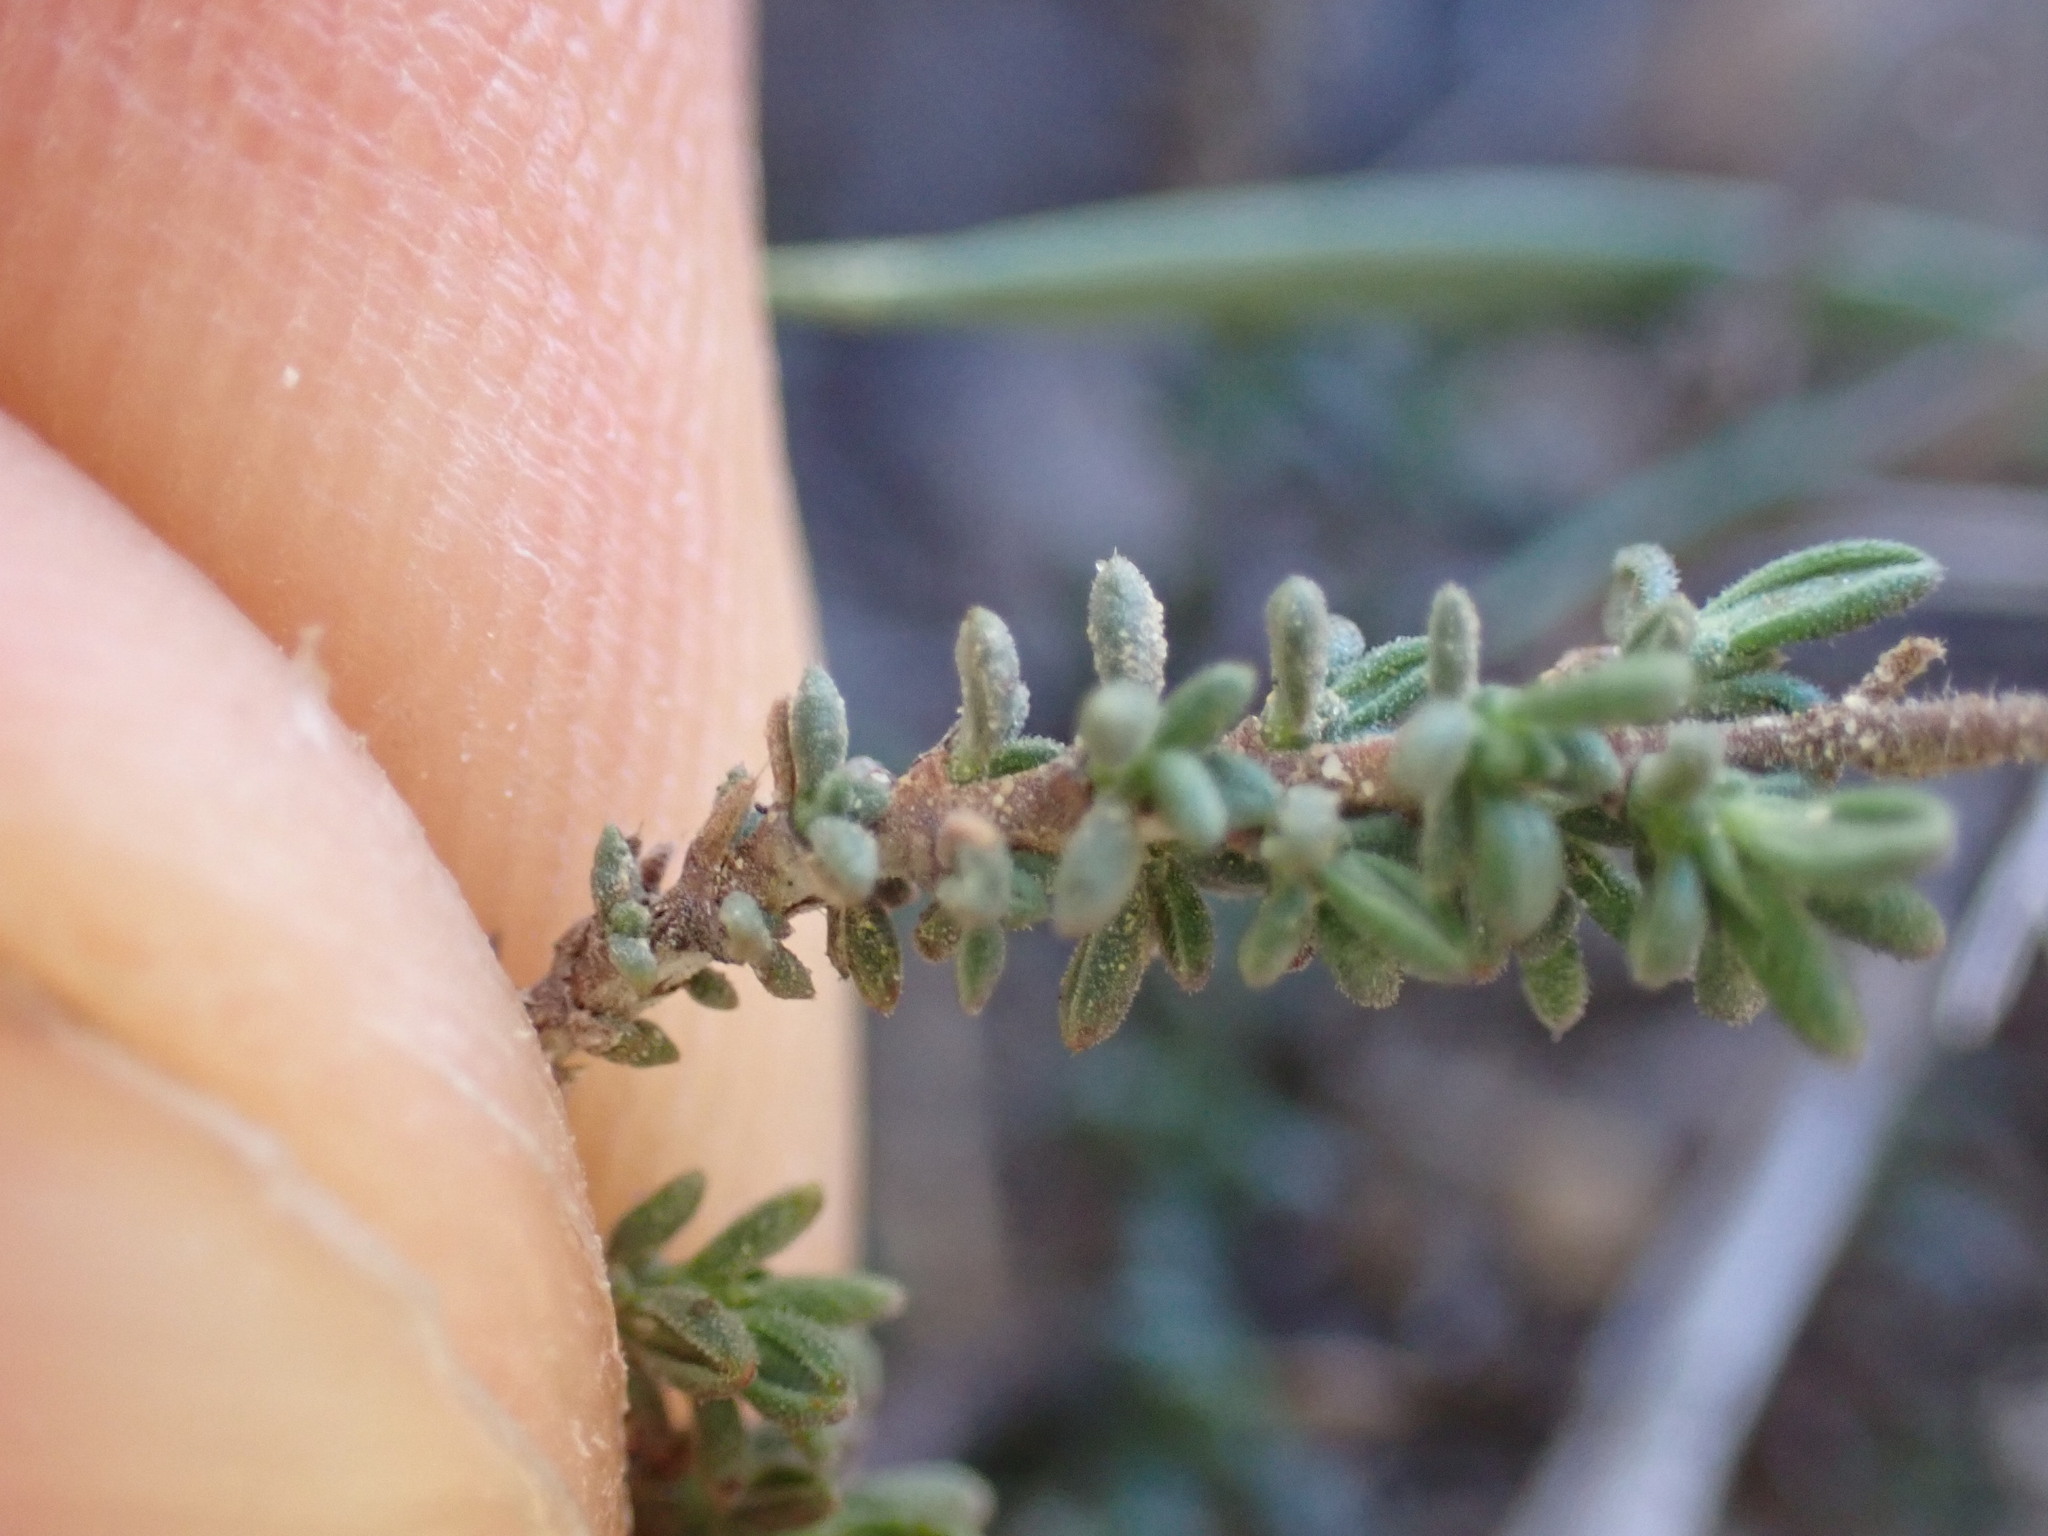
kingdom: Plantae
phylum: Tracheophyta
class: Magnoliopsida
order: Malvales
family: Cistaceae
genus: Fumana
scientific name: Fumana thymifolia
